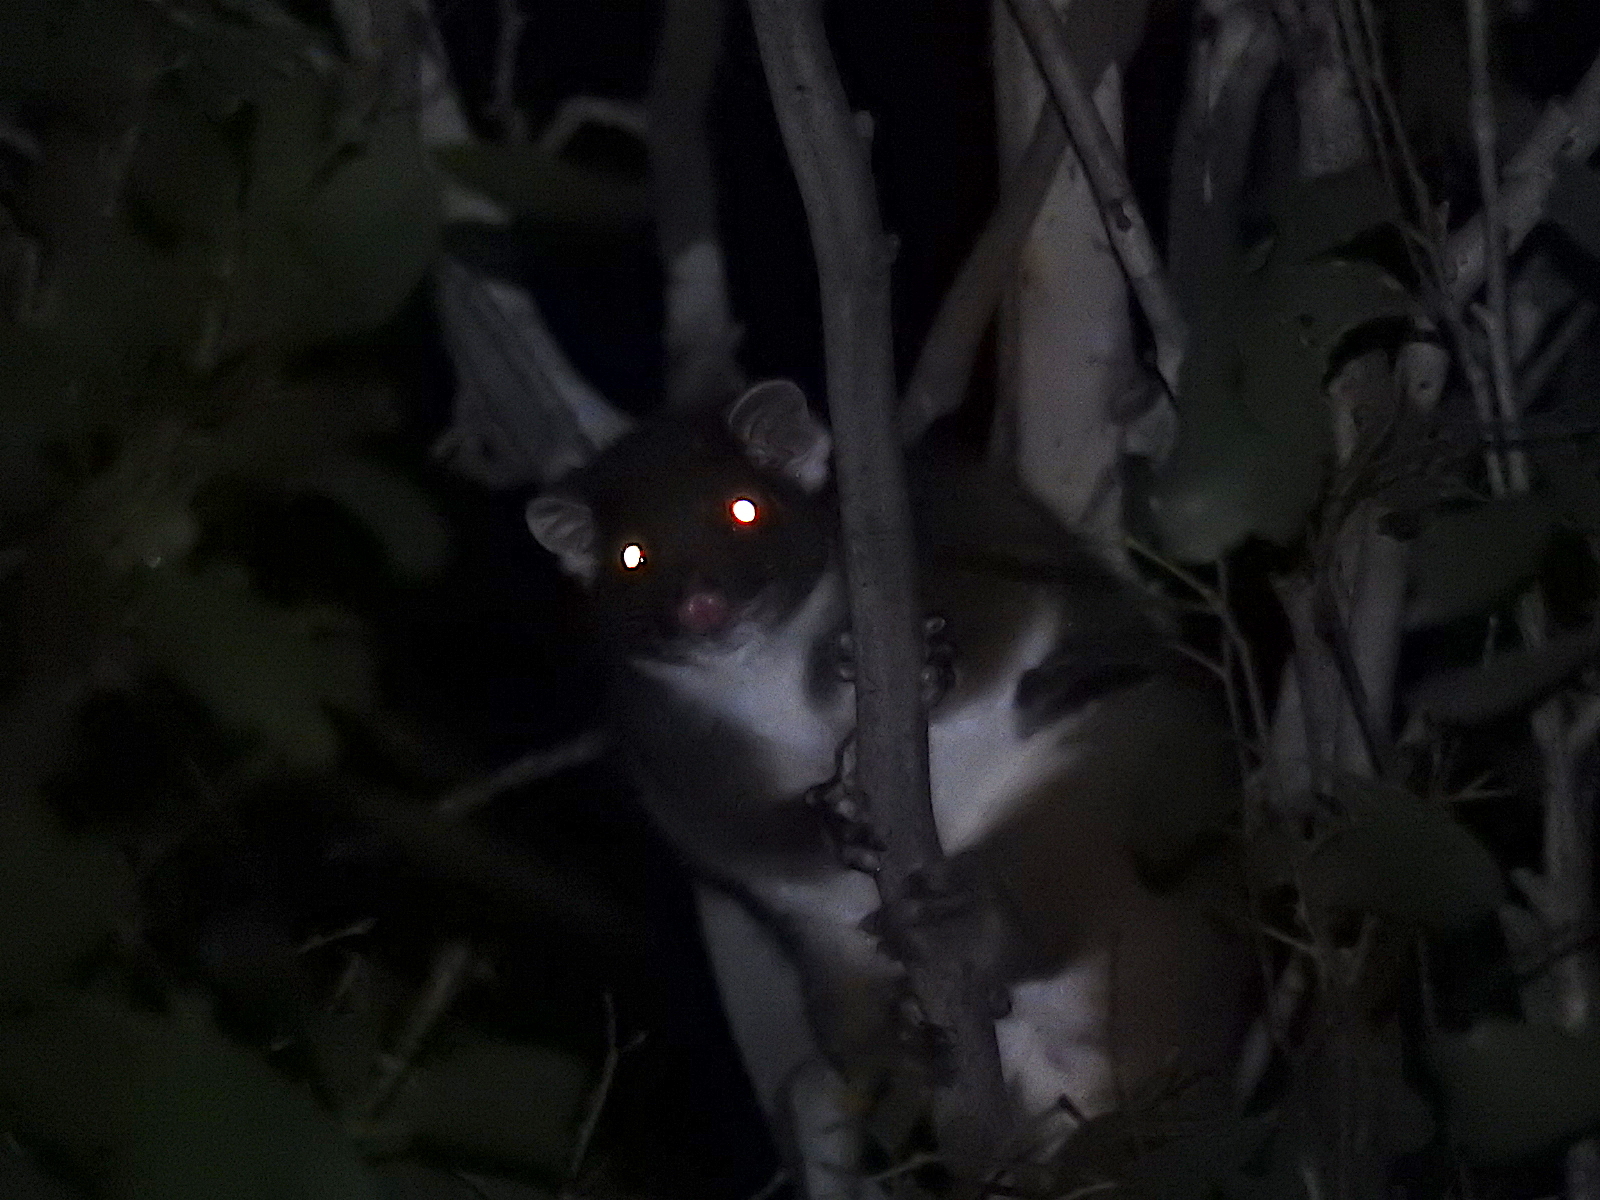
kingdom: Animalia
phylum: Chordata
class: Mammalia
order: Diprotodontia
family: Pseudocheiridae
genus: Pseudocheirus
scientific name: Pseudocheirus peregrinus
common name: Common ringtail possum
